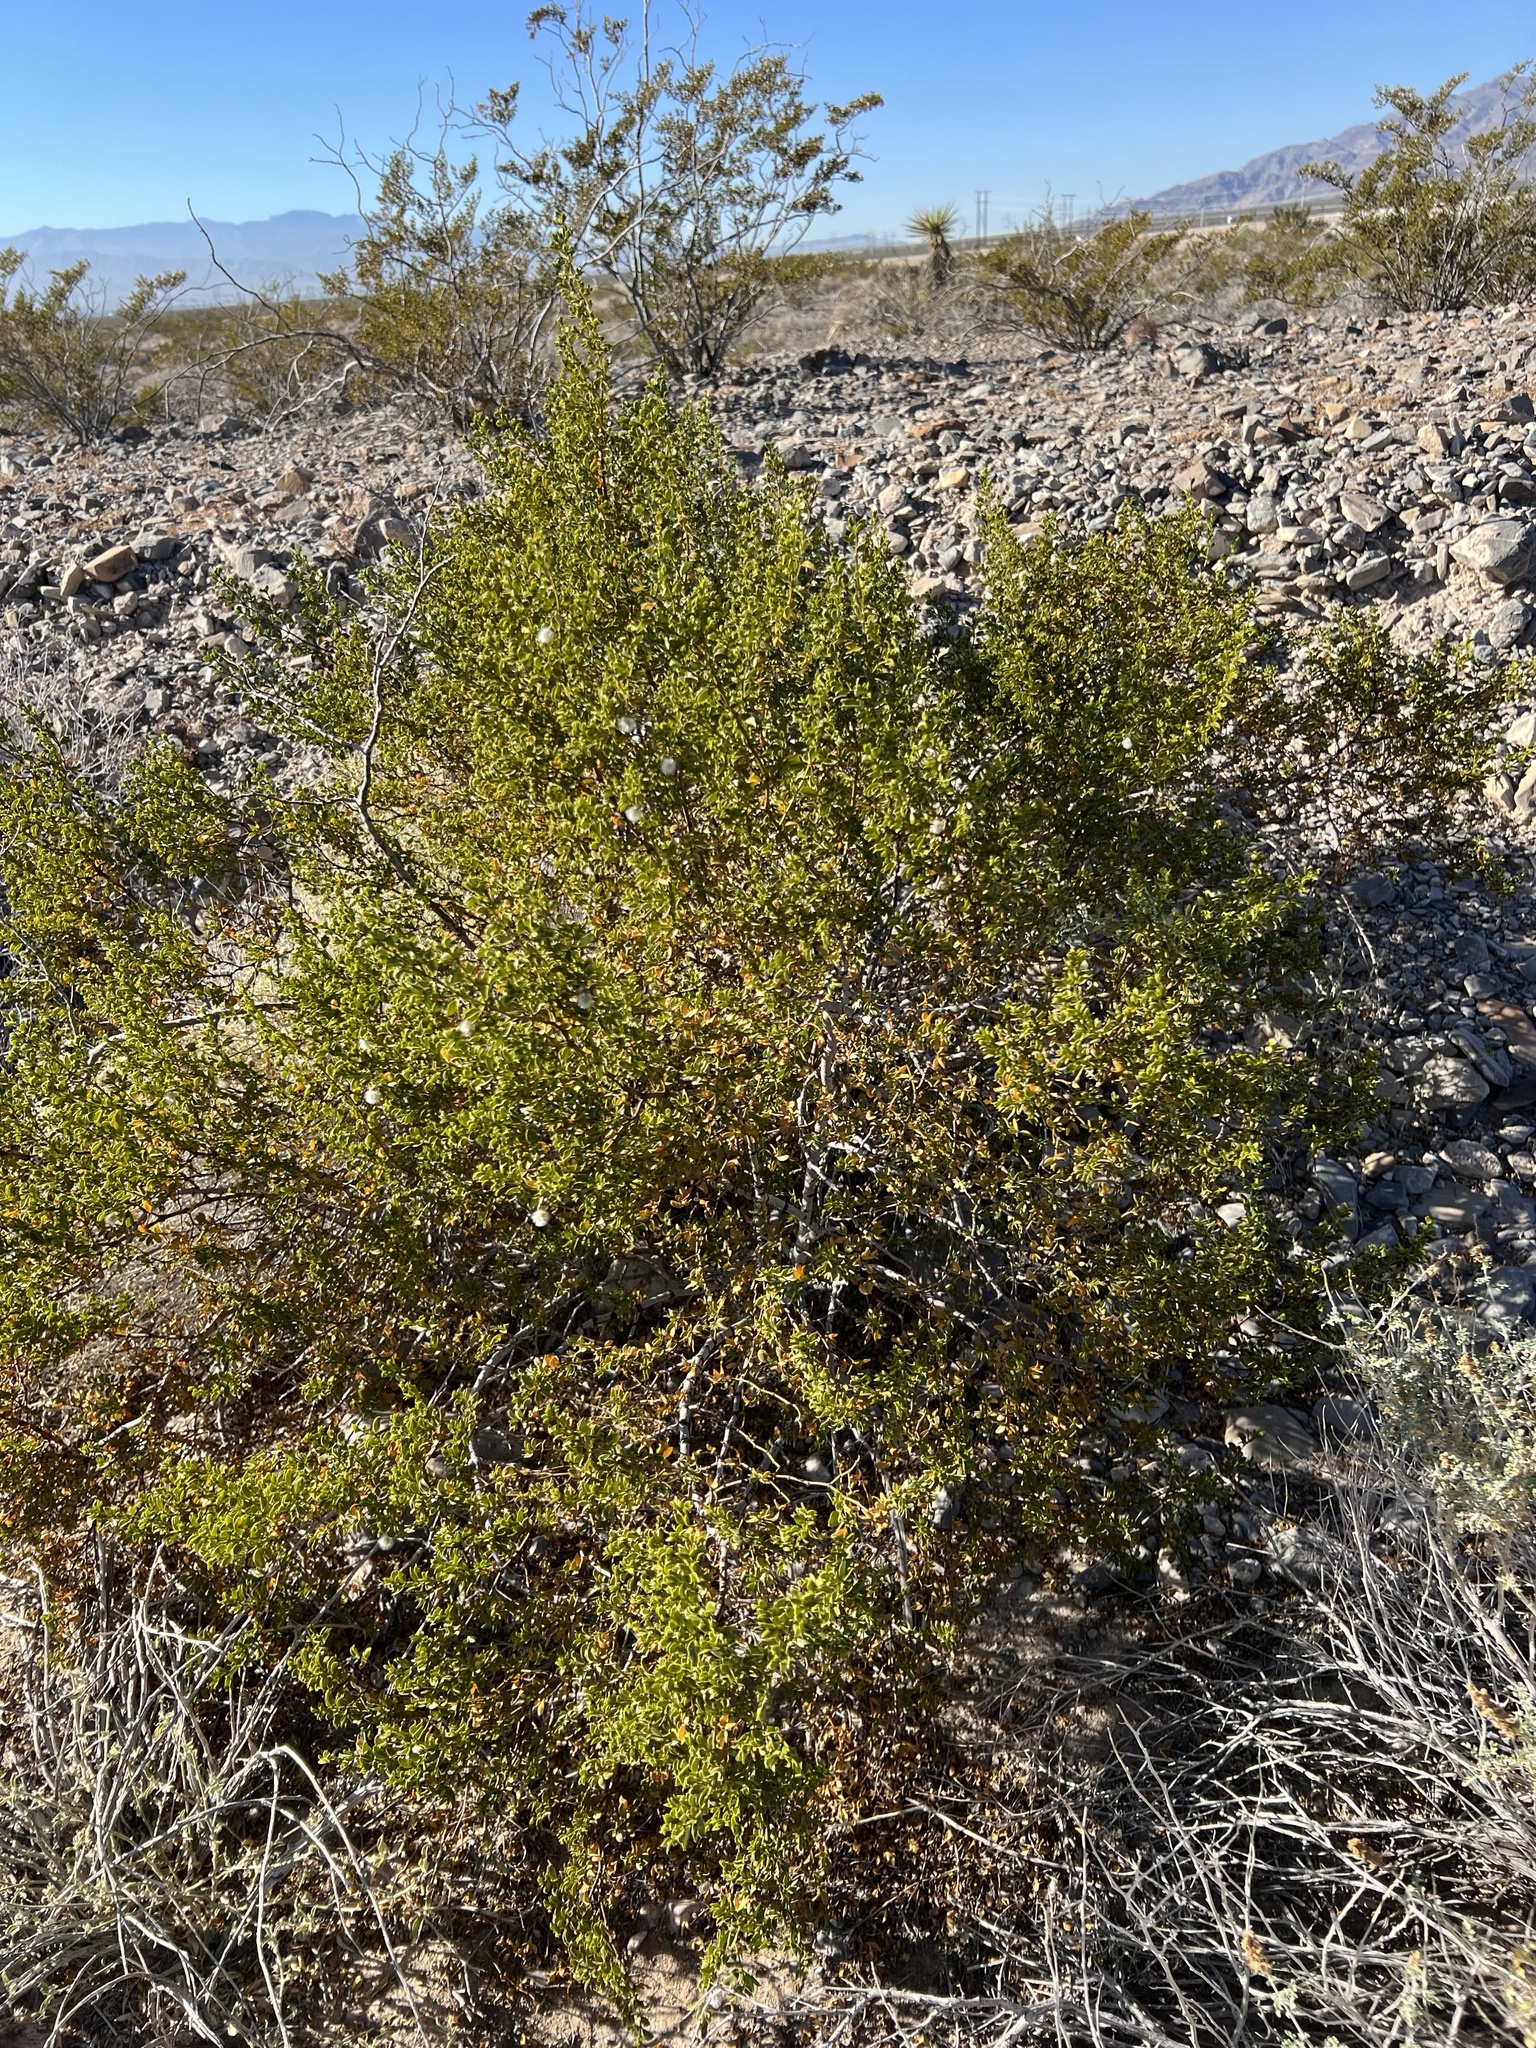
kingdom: Plantae
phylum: Tracheophyta
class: Magnoliopsida
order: Zygophyllales
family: Zygophyllaceae
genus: Larrea
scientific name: Larrea tridentata
